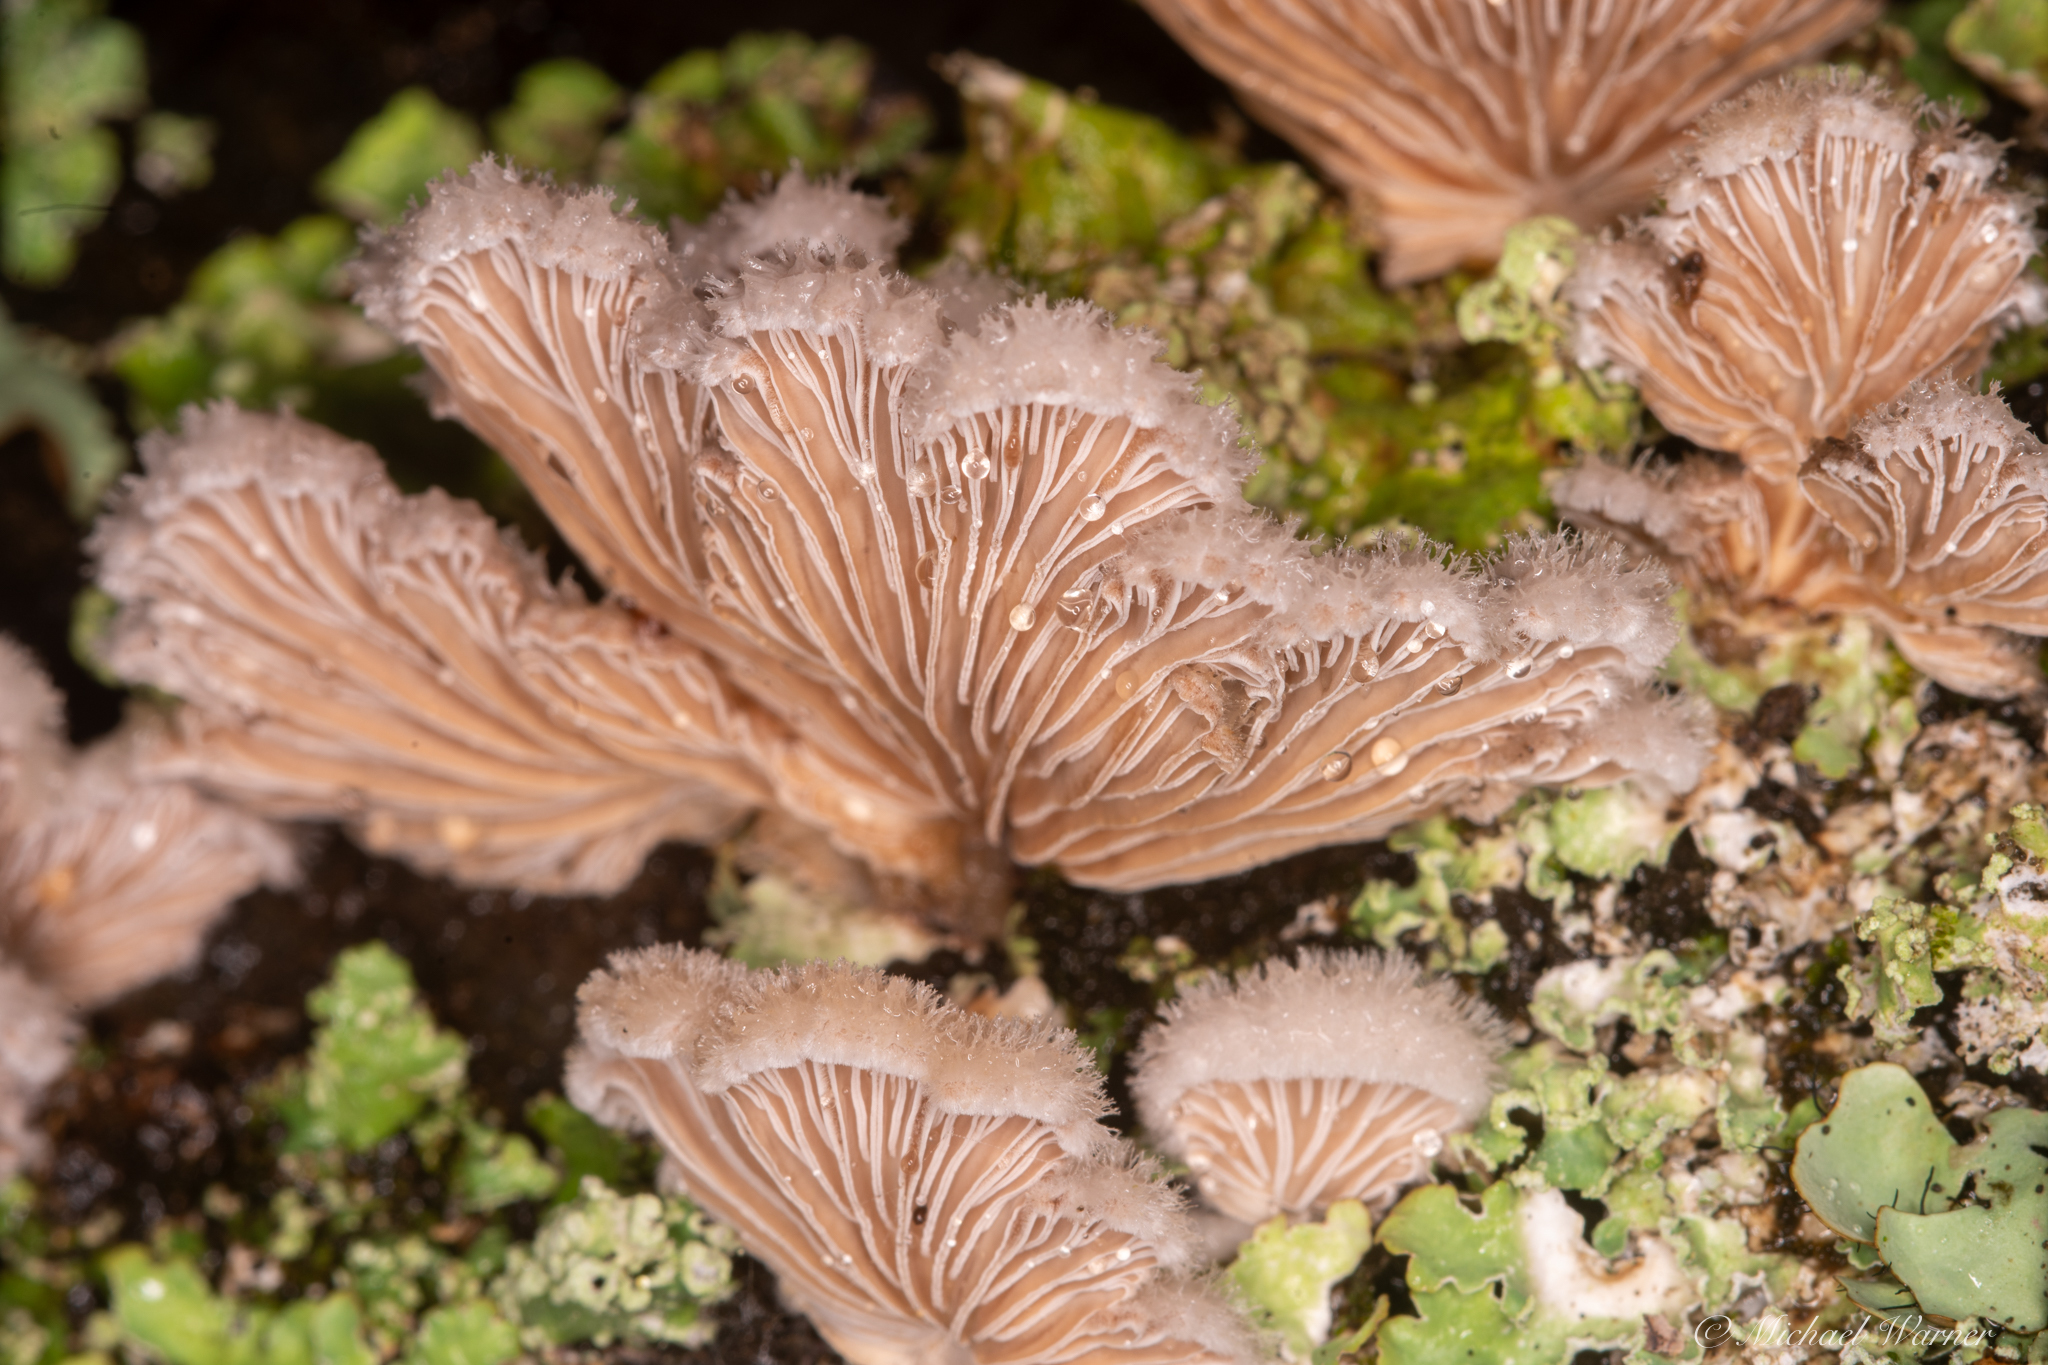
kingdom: Fungi
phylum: Basidiomycota
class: Agaricomycetes
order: Agaricales
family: Schizophyllaceae
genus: Schizophyllum
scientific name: Schizophyllum commune
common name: Common porecrust
